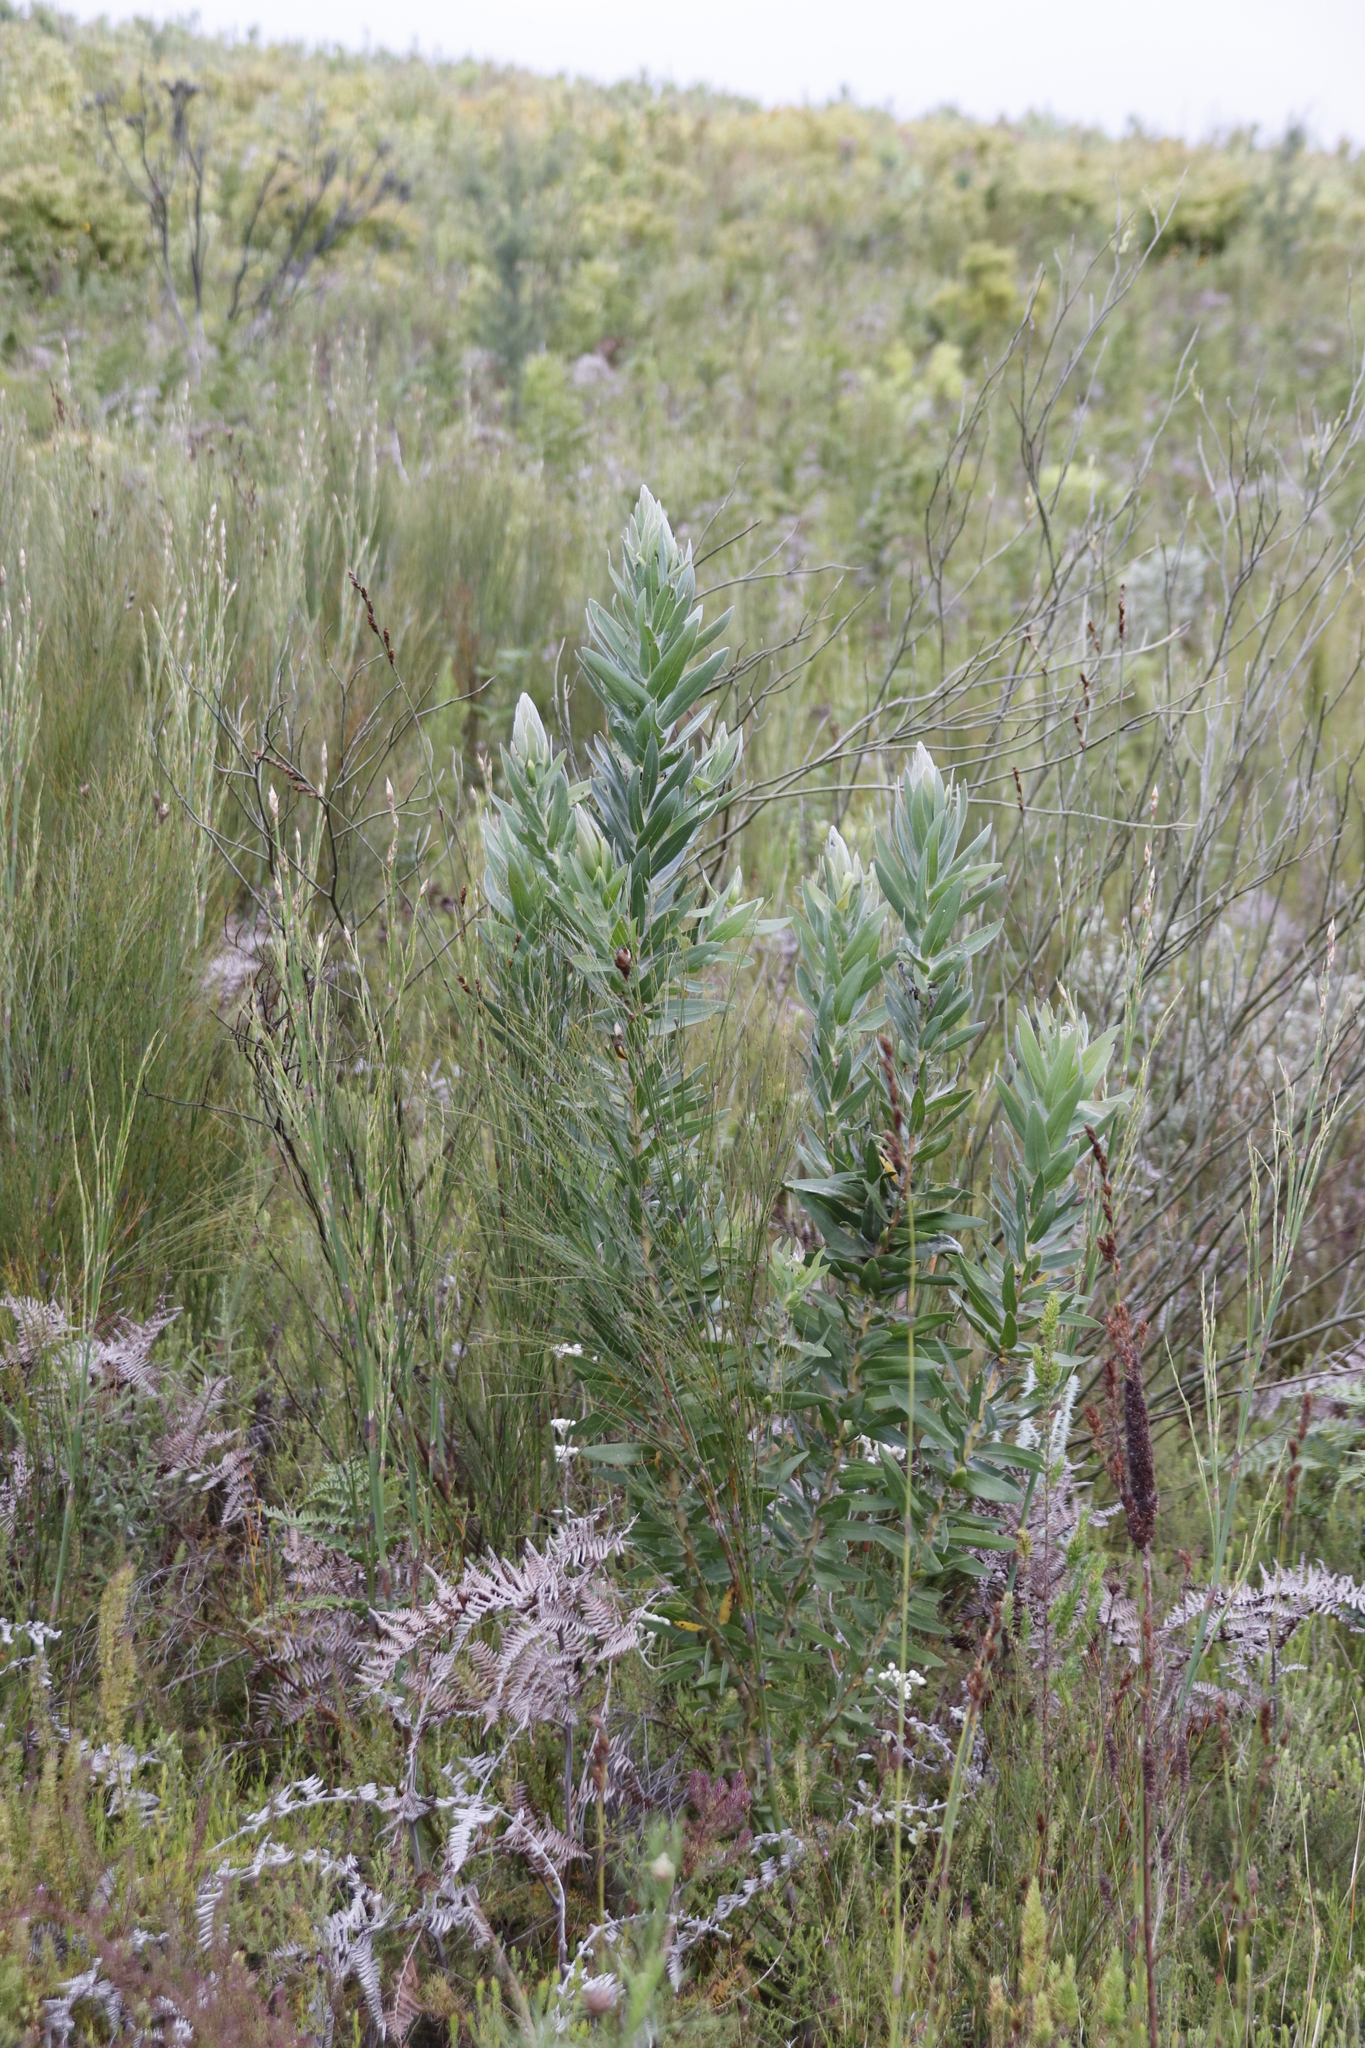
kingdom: Plantae
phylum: Tracheophyta
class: Magnoliopsida
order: Proteales
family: Proteaceae
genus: Protea
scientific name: Protea coronata
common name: Green sugarbush
